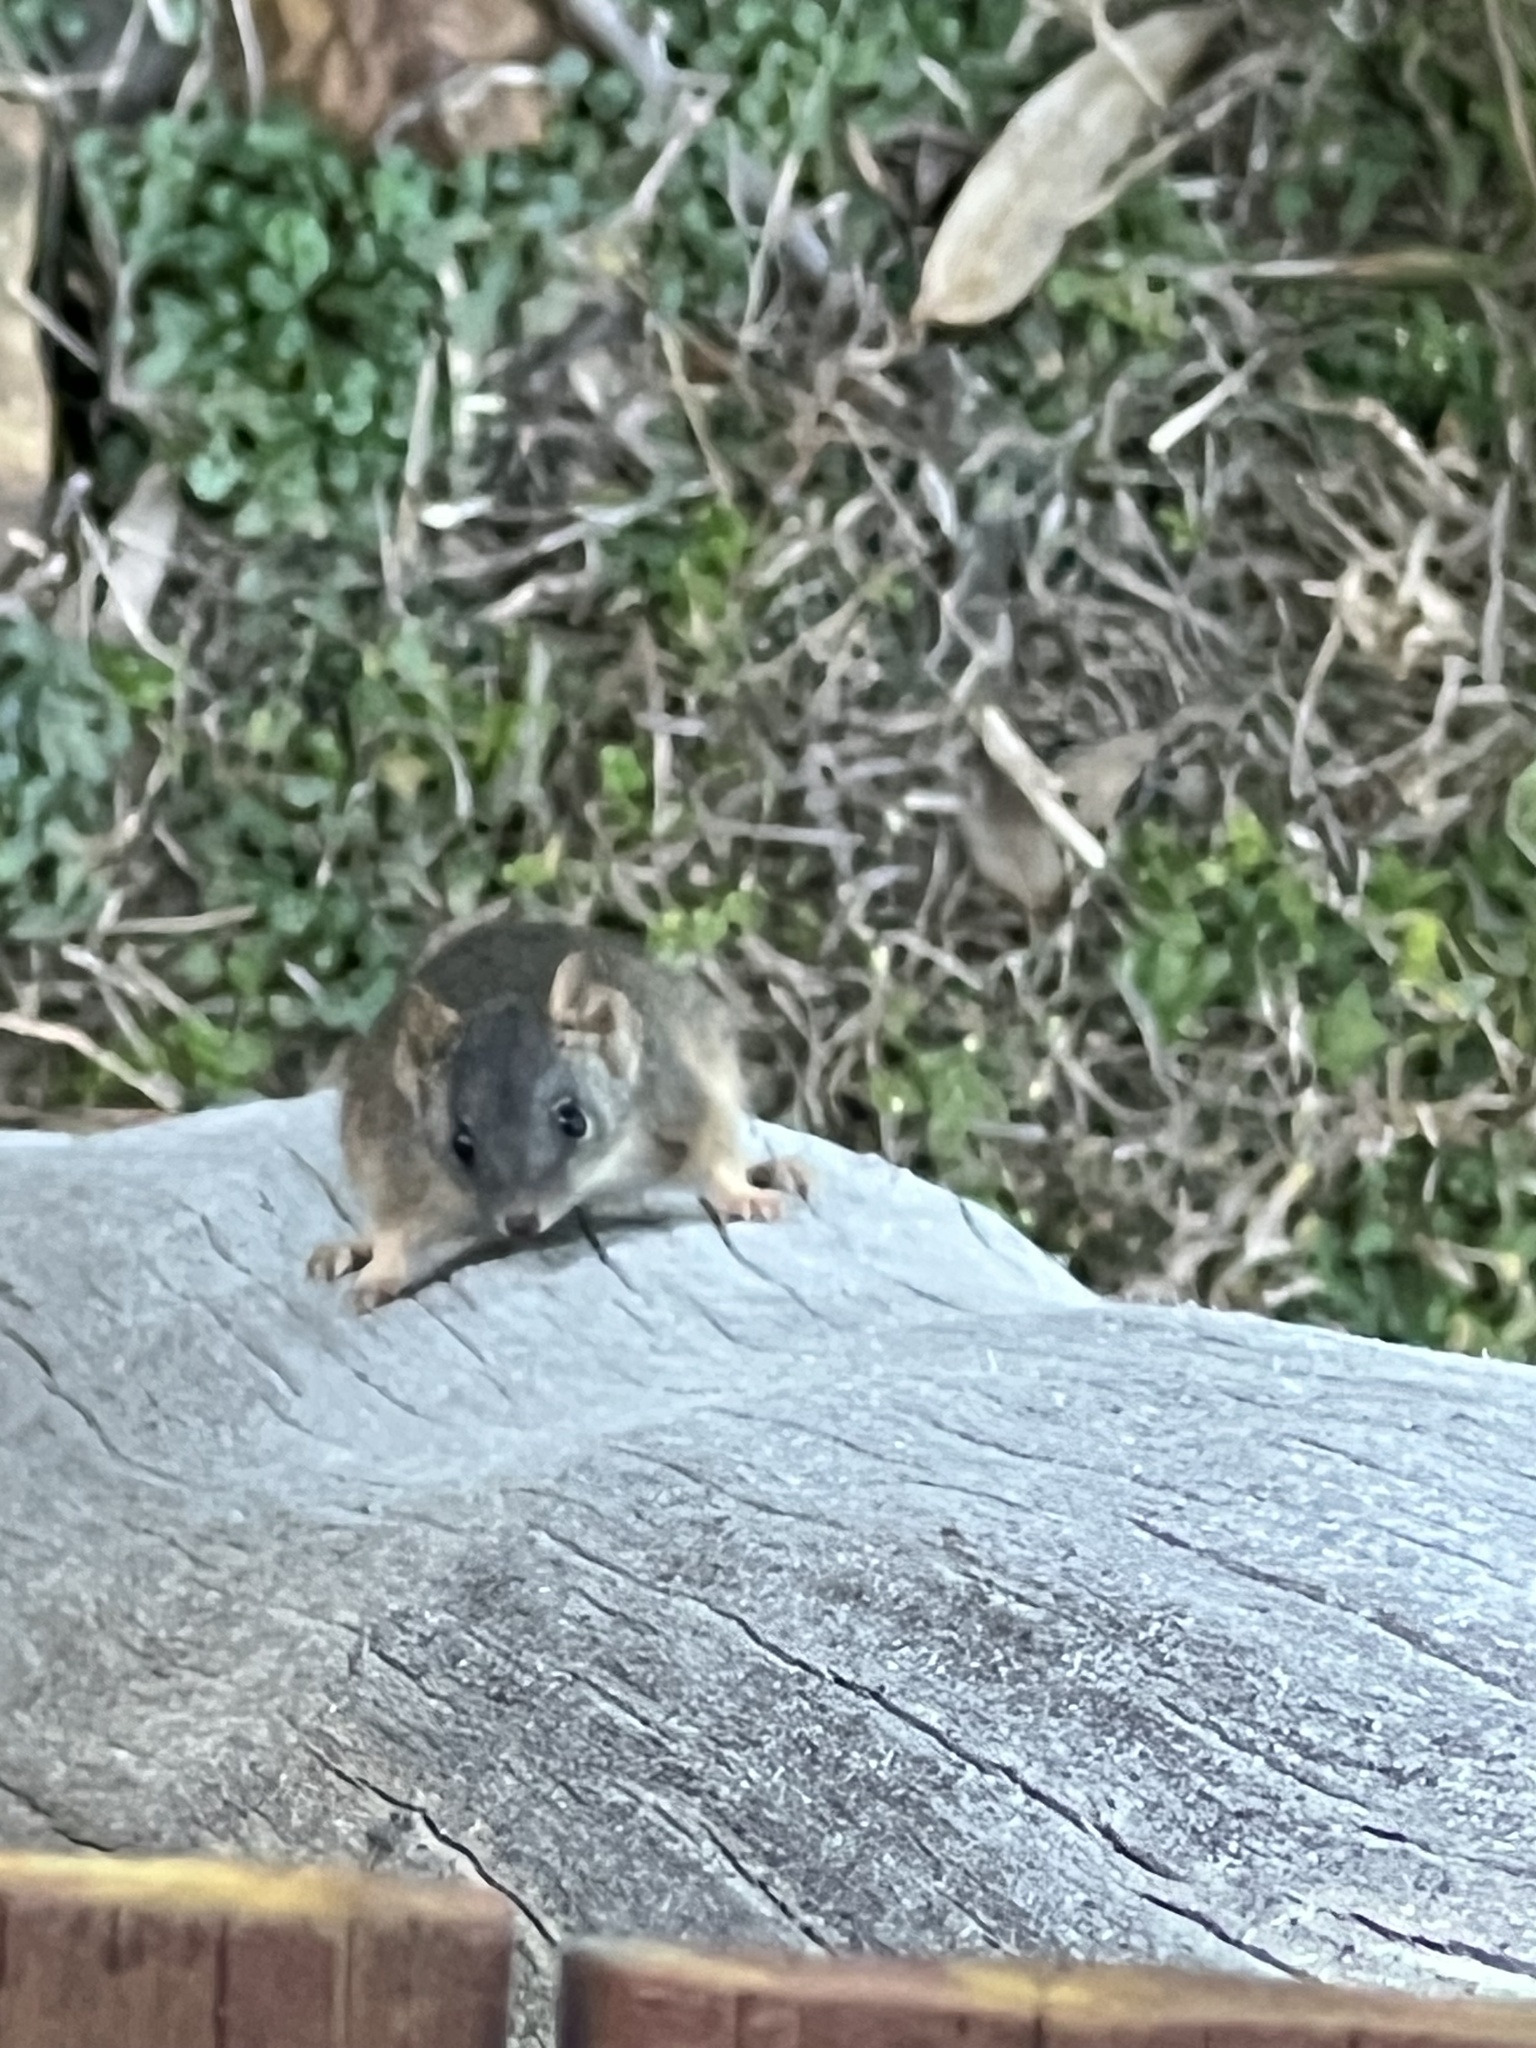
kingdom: Animalia
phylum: Chordata
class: Mammalia
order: Dasyuromorphia
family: Dasyuridae
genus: Antechinus
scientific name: Antechinus flavipes
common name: Yellow-footed antechinus
